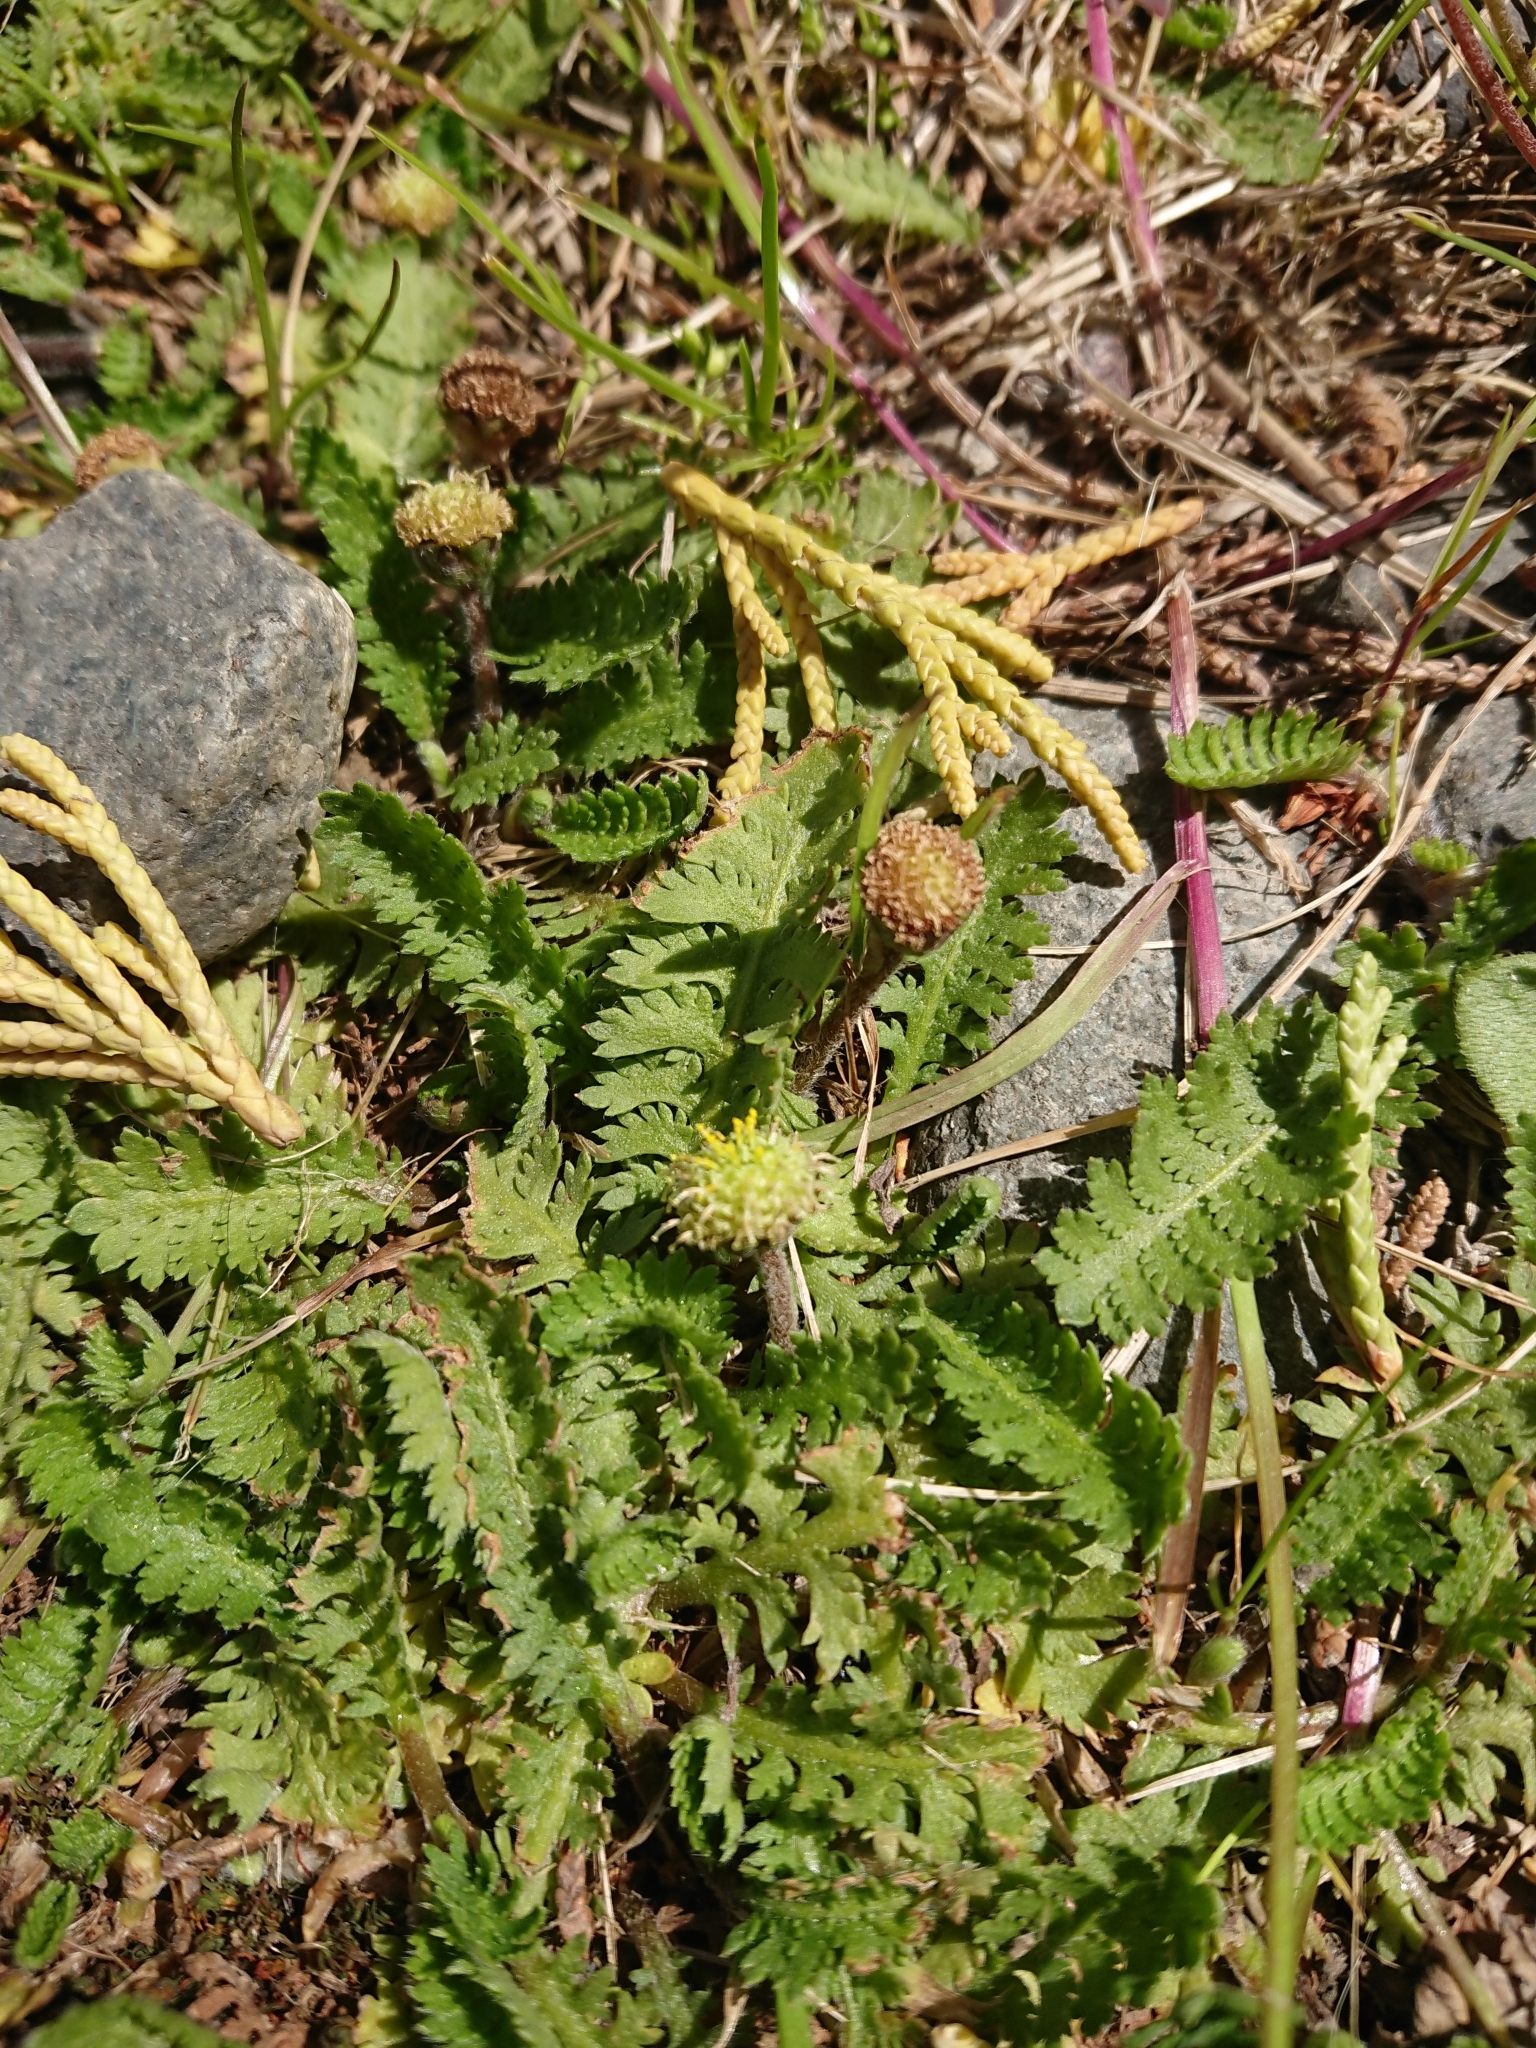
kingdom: Plantae
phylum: Tracheophyta
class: Magnoliopsida
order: Asterales
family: Asteraceae
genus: Leptinella
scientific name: Leptinella scariosa
